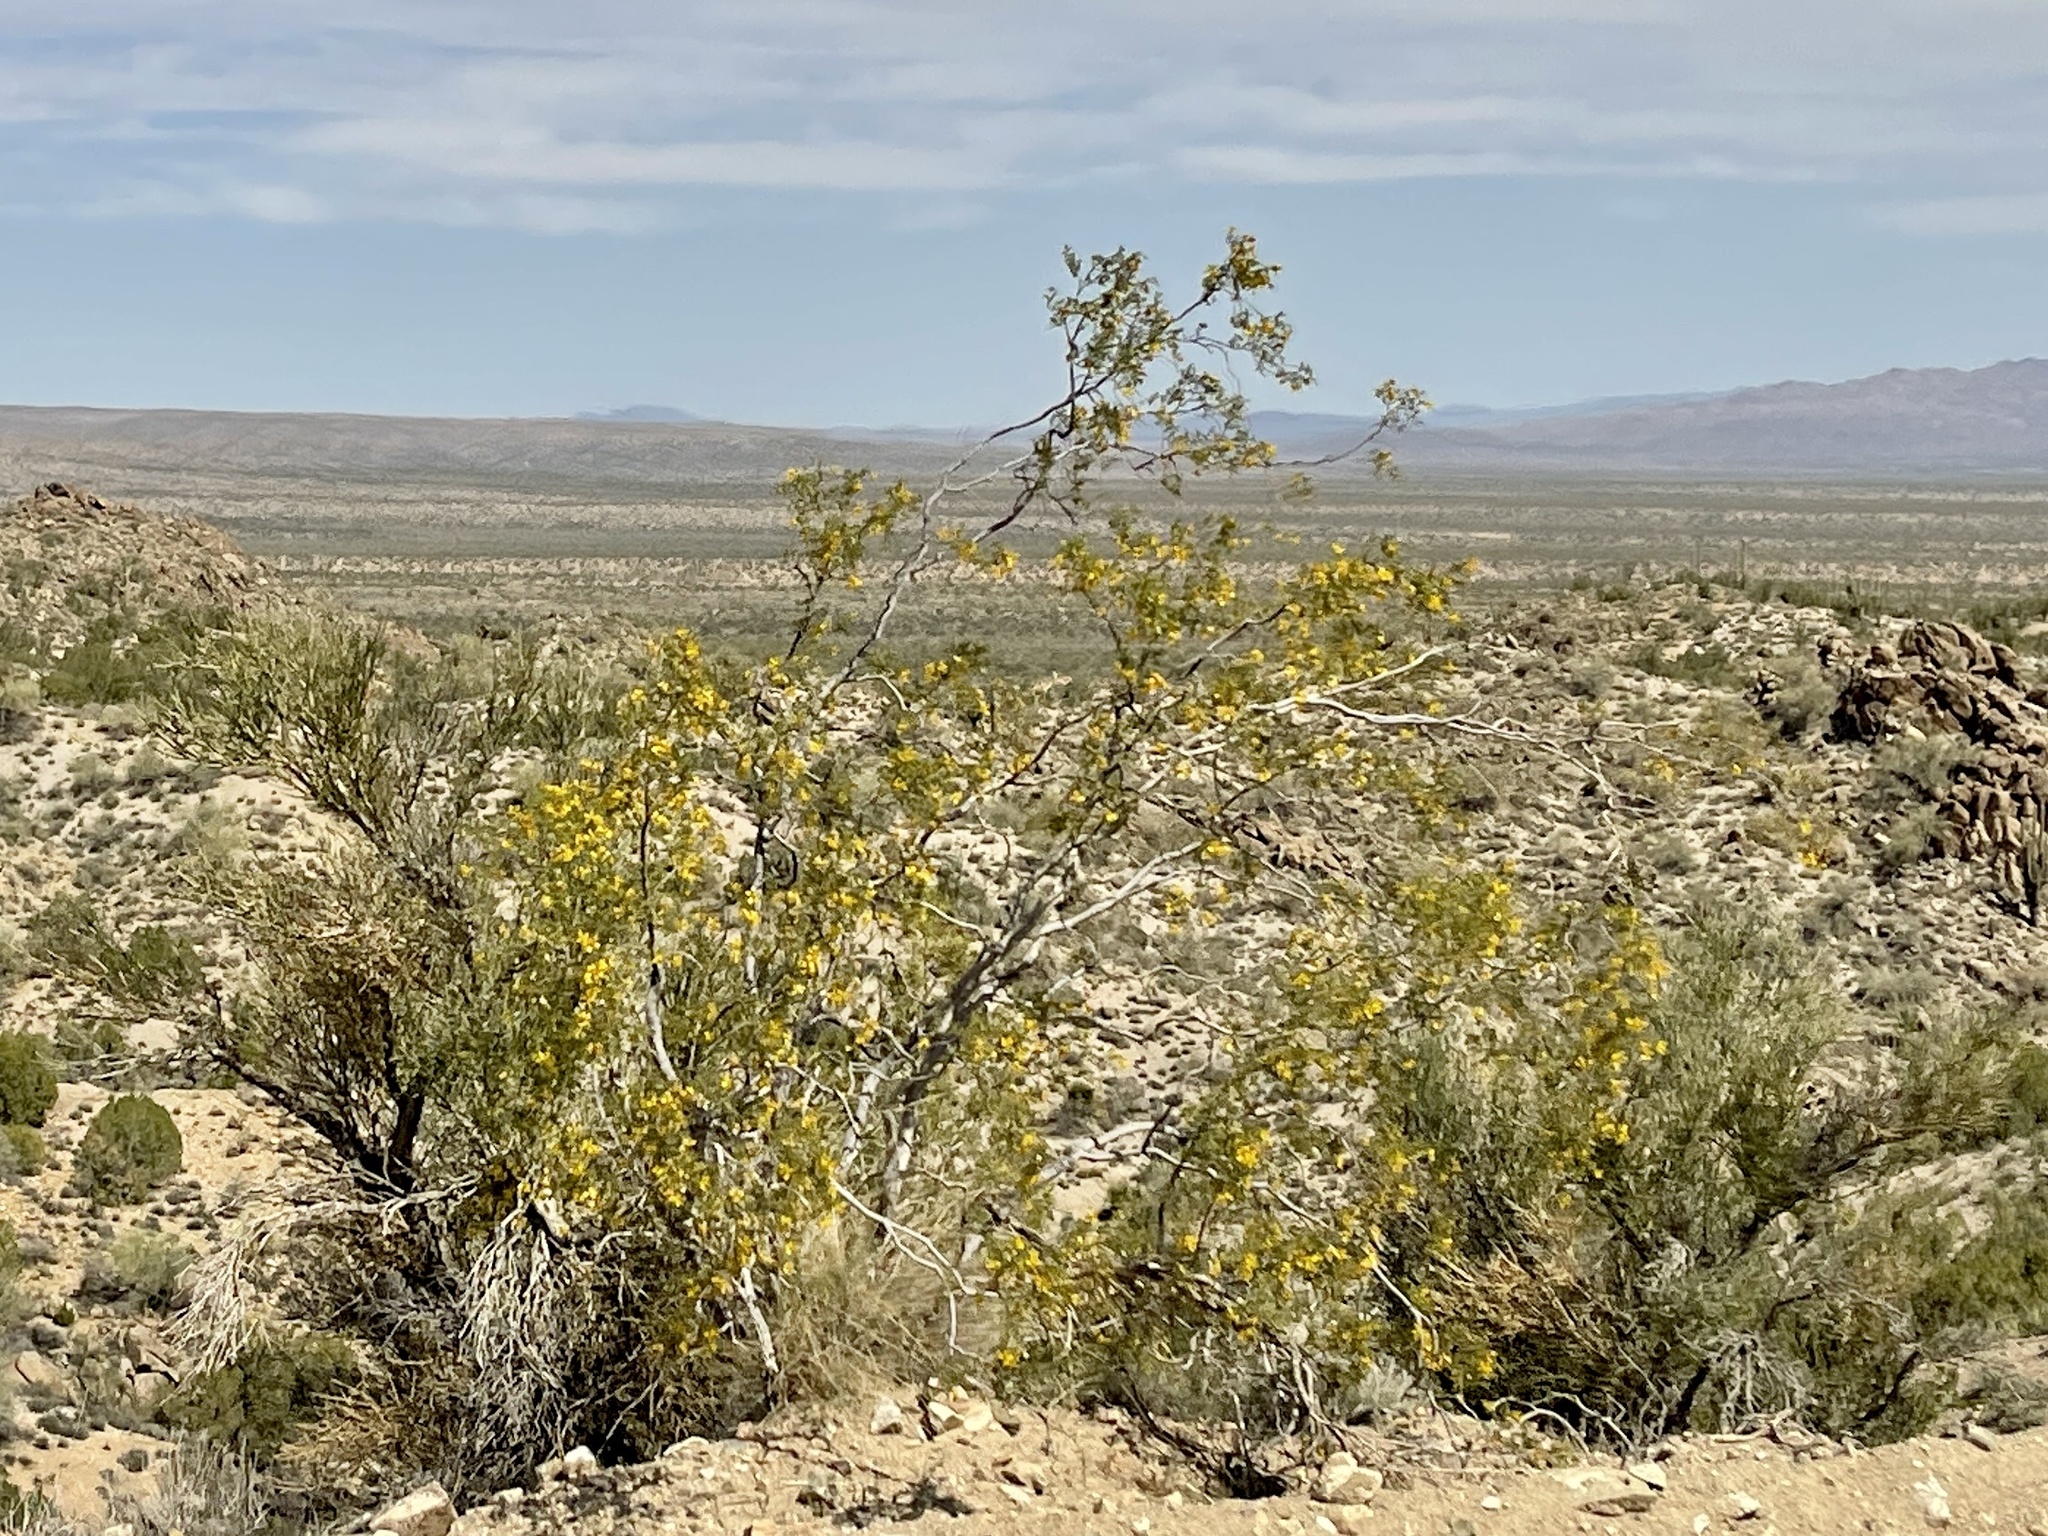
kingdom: Plantae
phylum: Tracheophyta
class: Magnoliopsida
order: Zygophyllales
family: Zygophyllaceae
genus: Larrea
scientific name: Larrea tridentata
